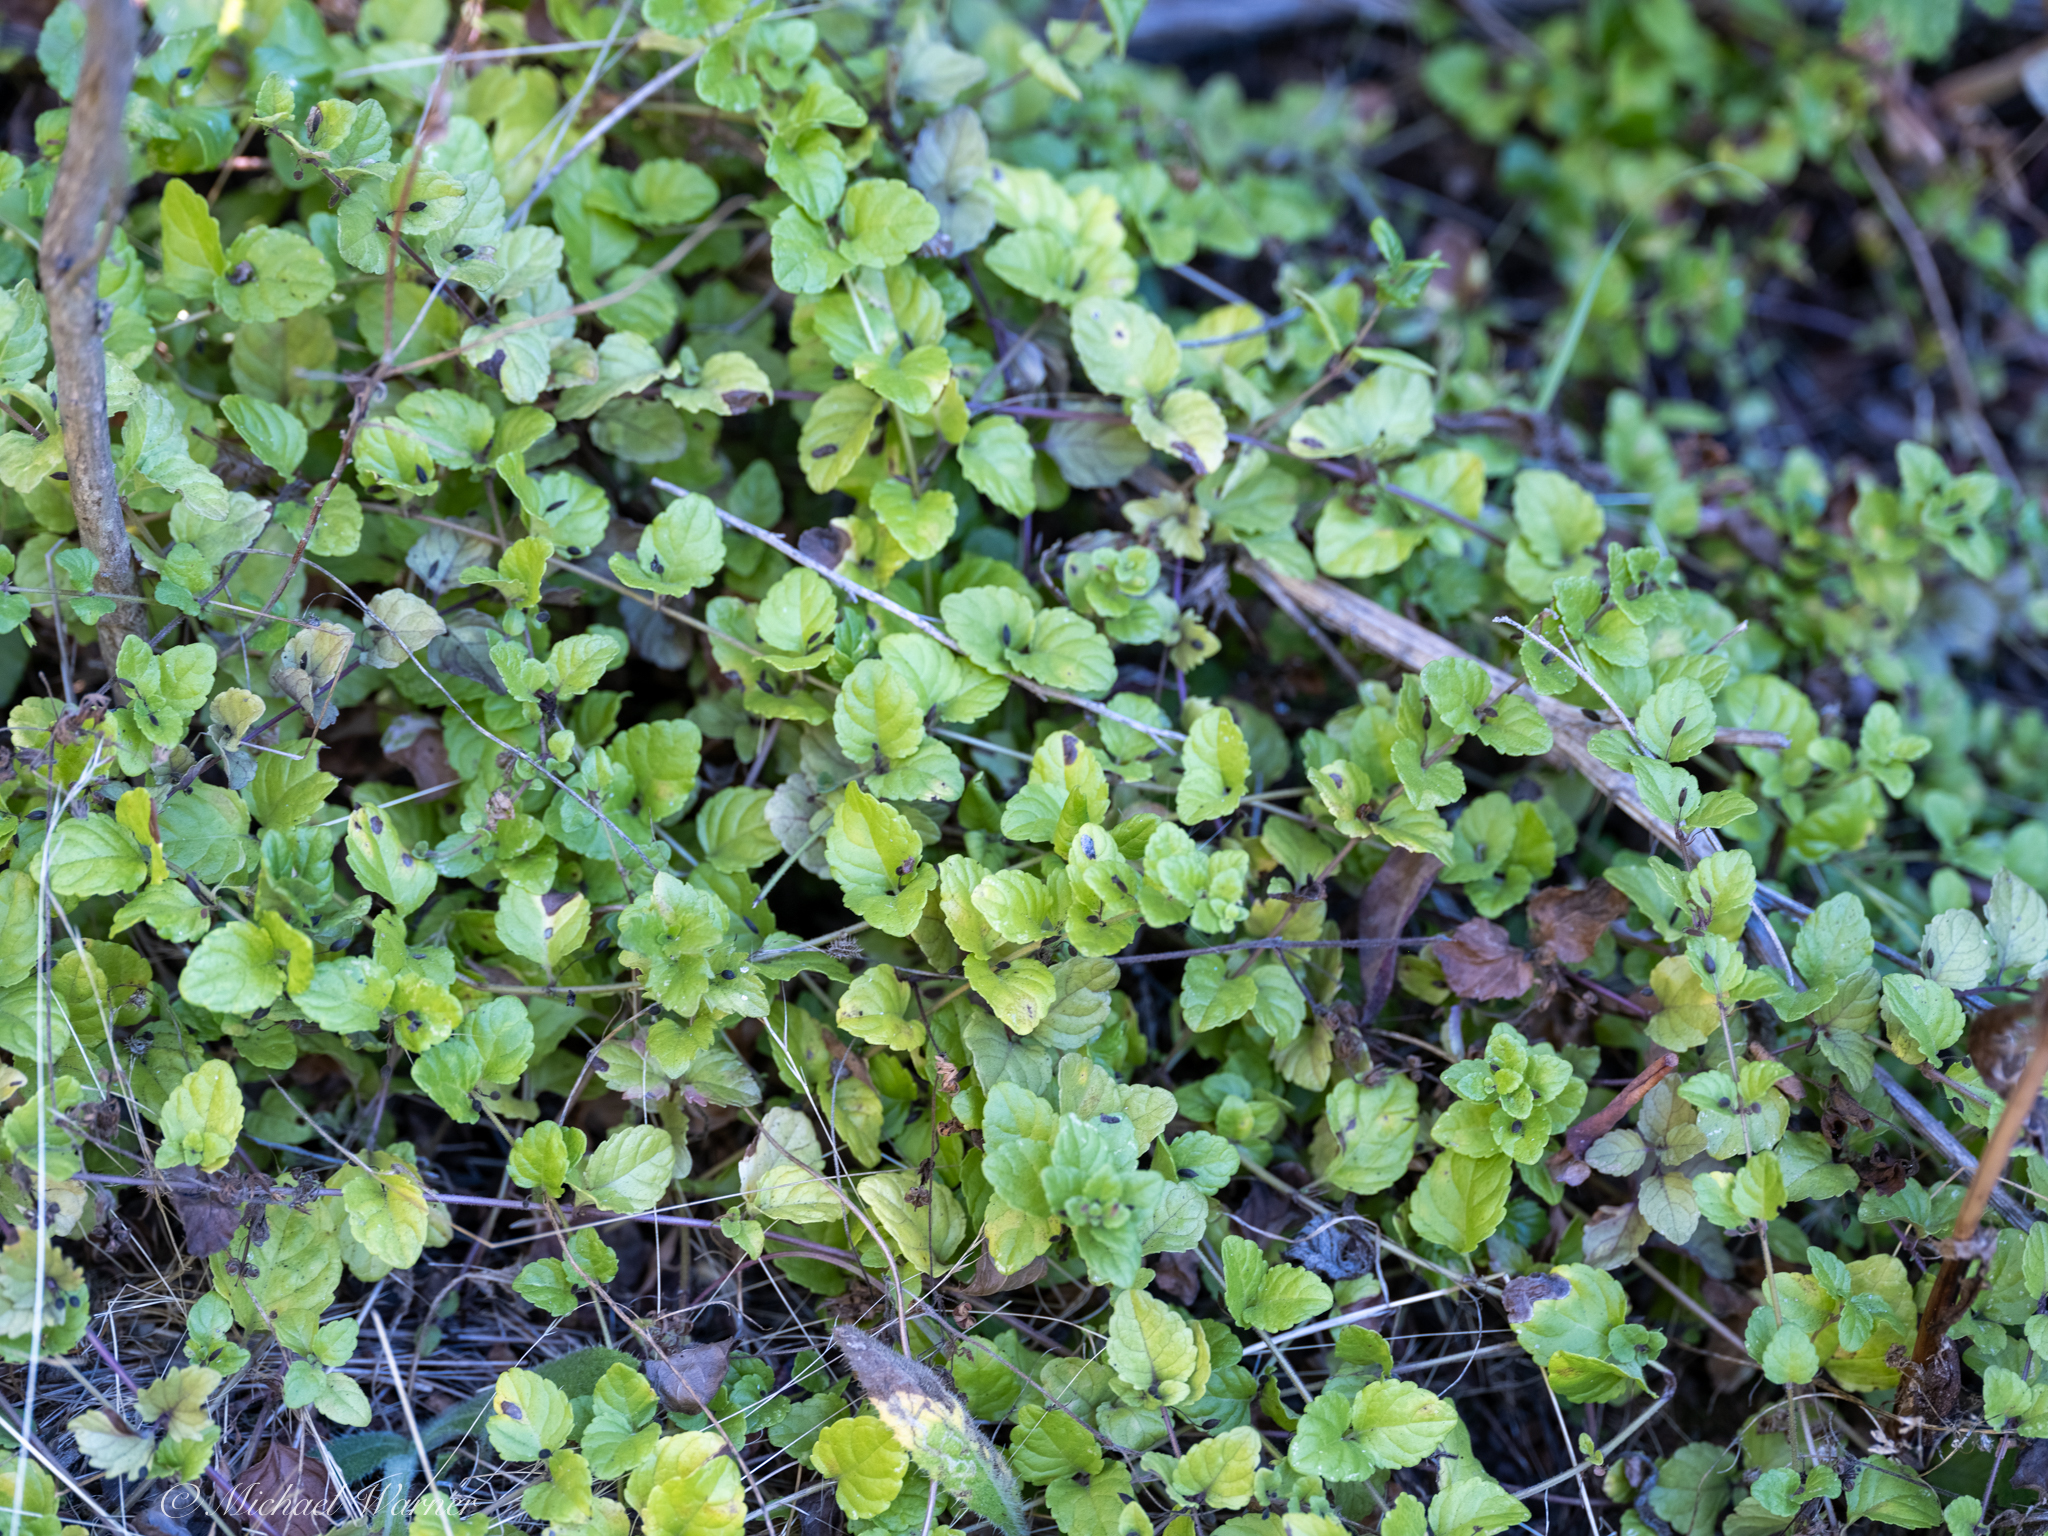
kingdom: Plantae
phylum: Tracheophyta
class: Magnoliopsida
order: Lamiales
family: Lamiaceae
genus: Micromeria
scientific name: Micromeria douglasii
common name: Yerba buena
